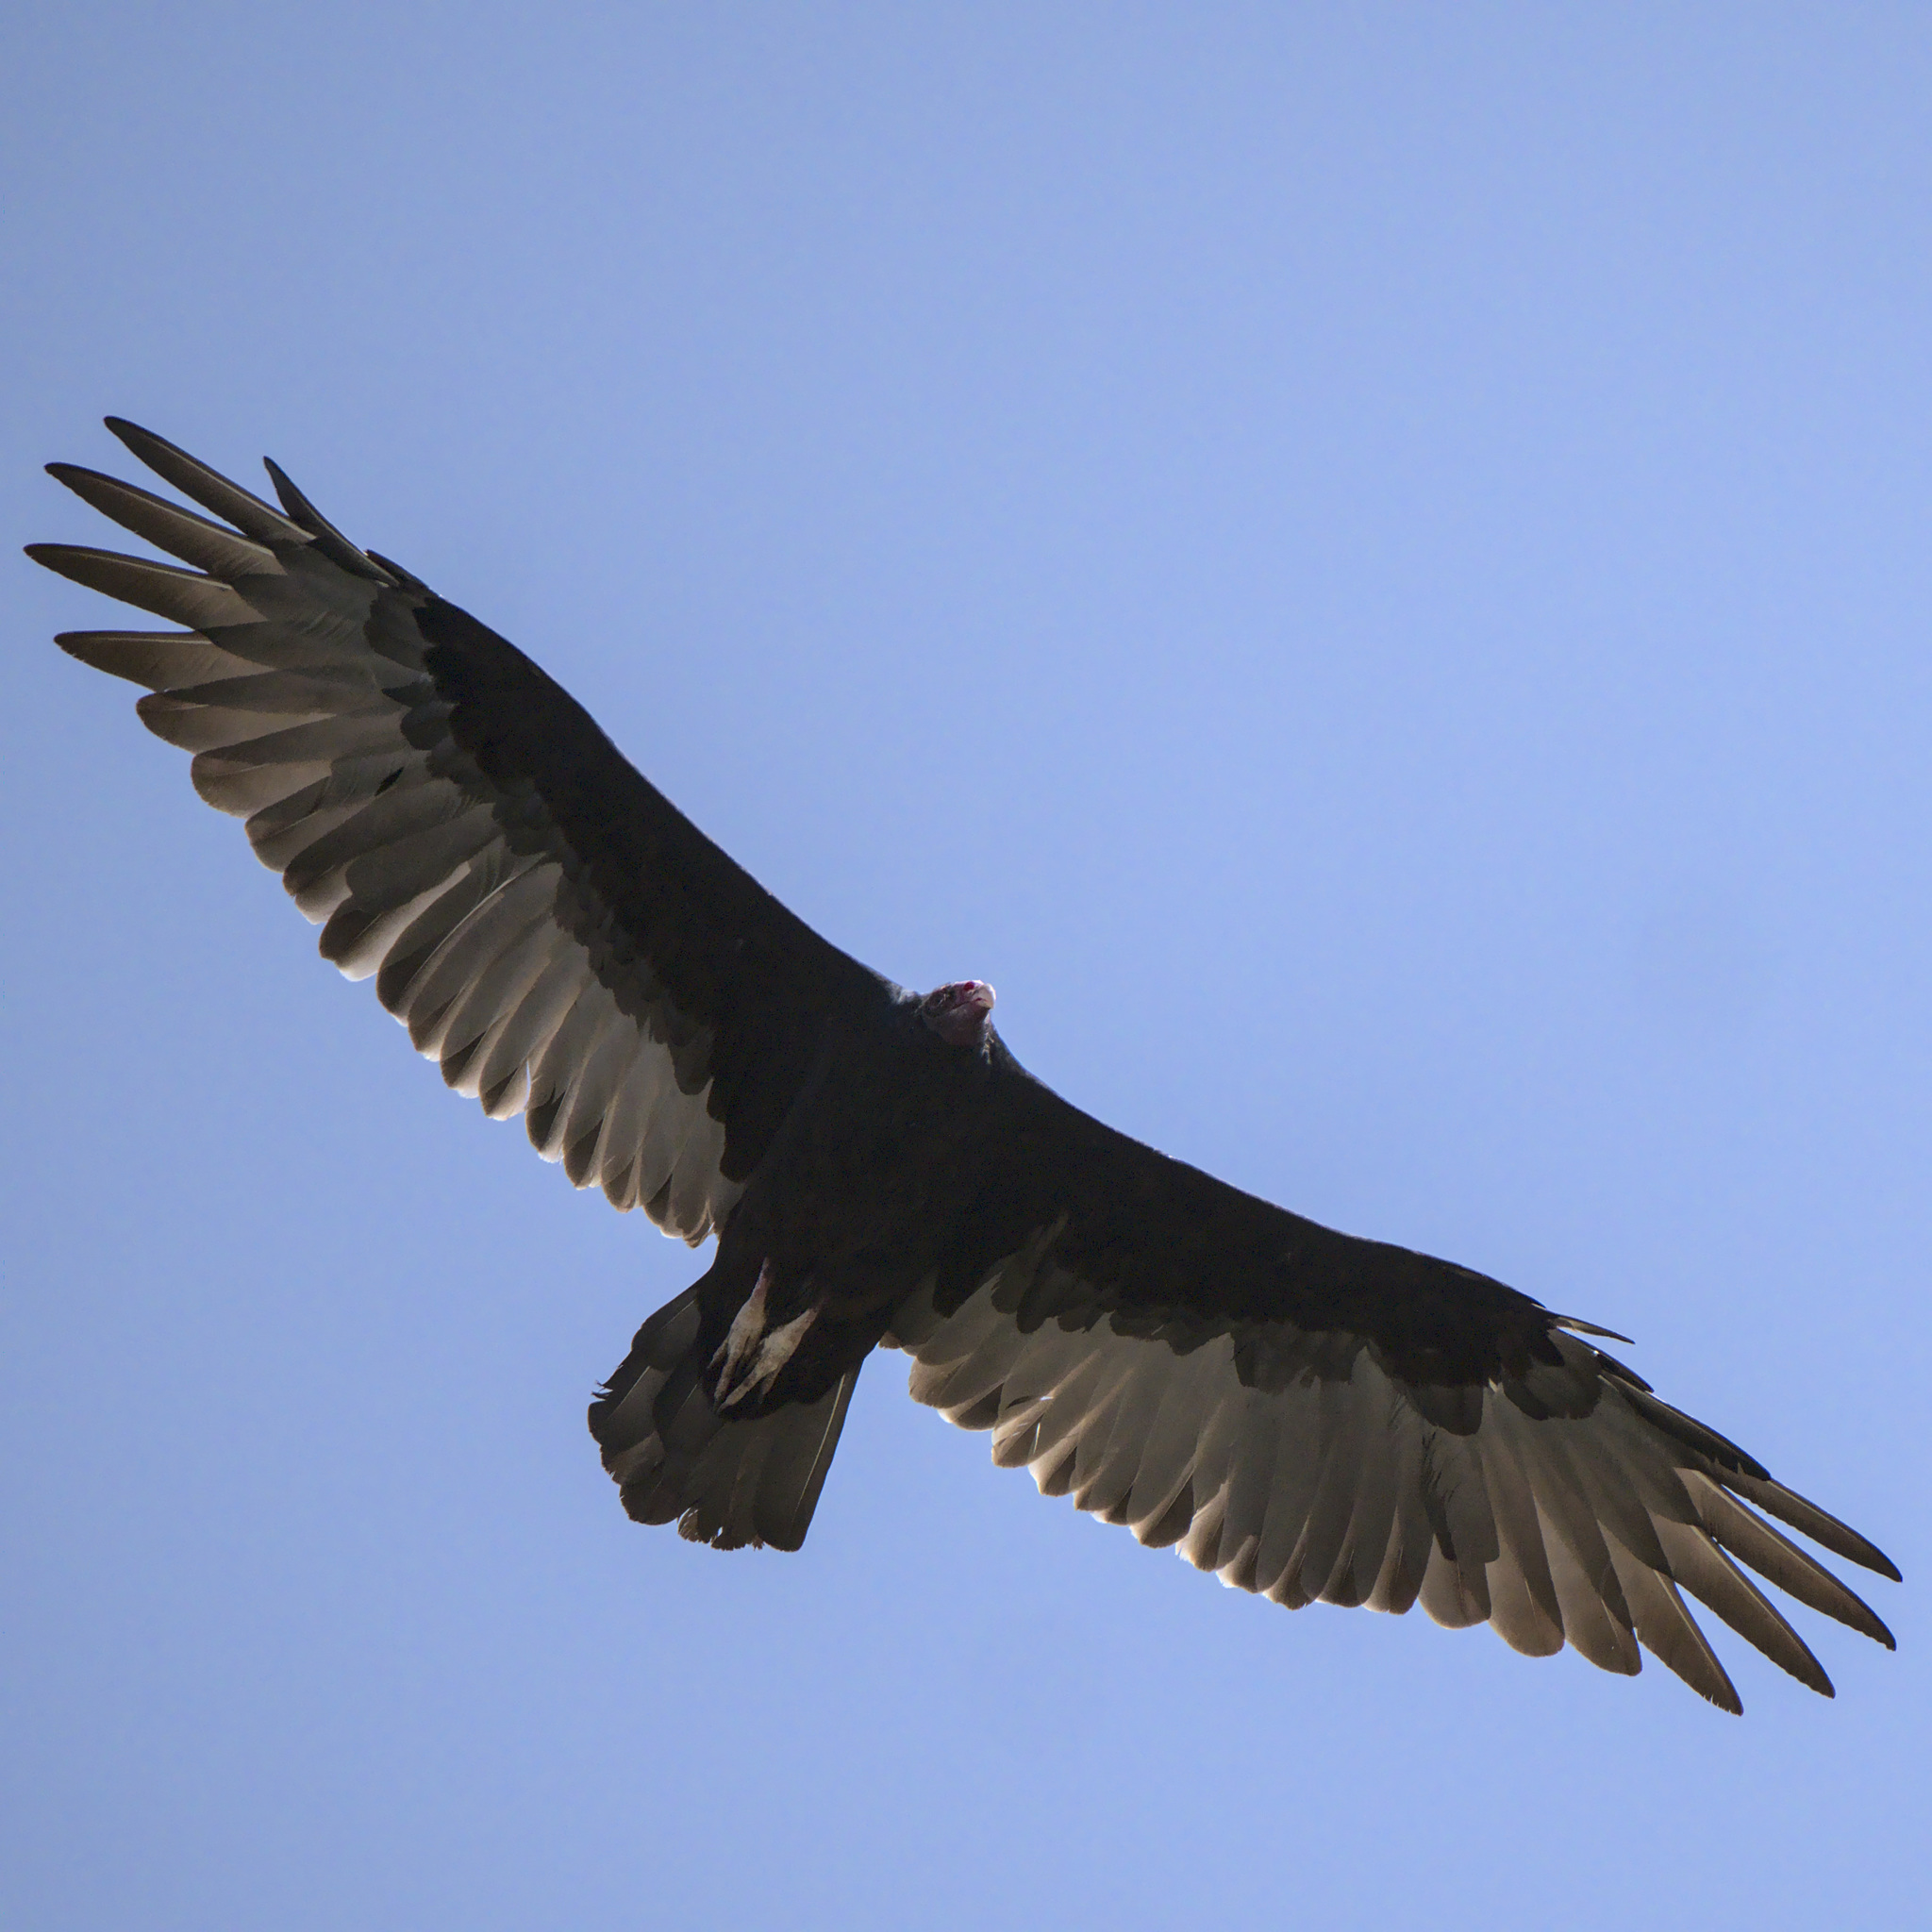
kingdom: Animalia
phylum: Chordata
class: Aves
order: Accipitriformes
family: Cathartidae
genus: Cathartes
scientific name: Cathartes aura
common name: Turkey vulture
